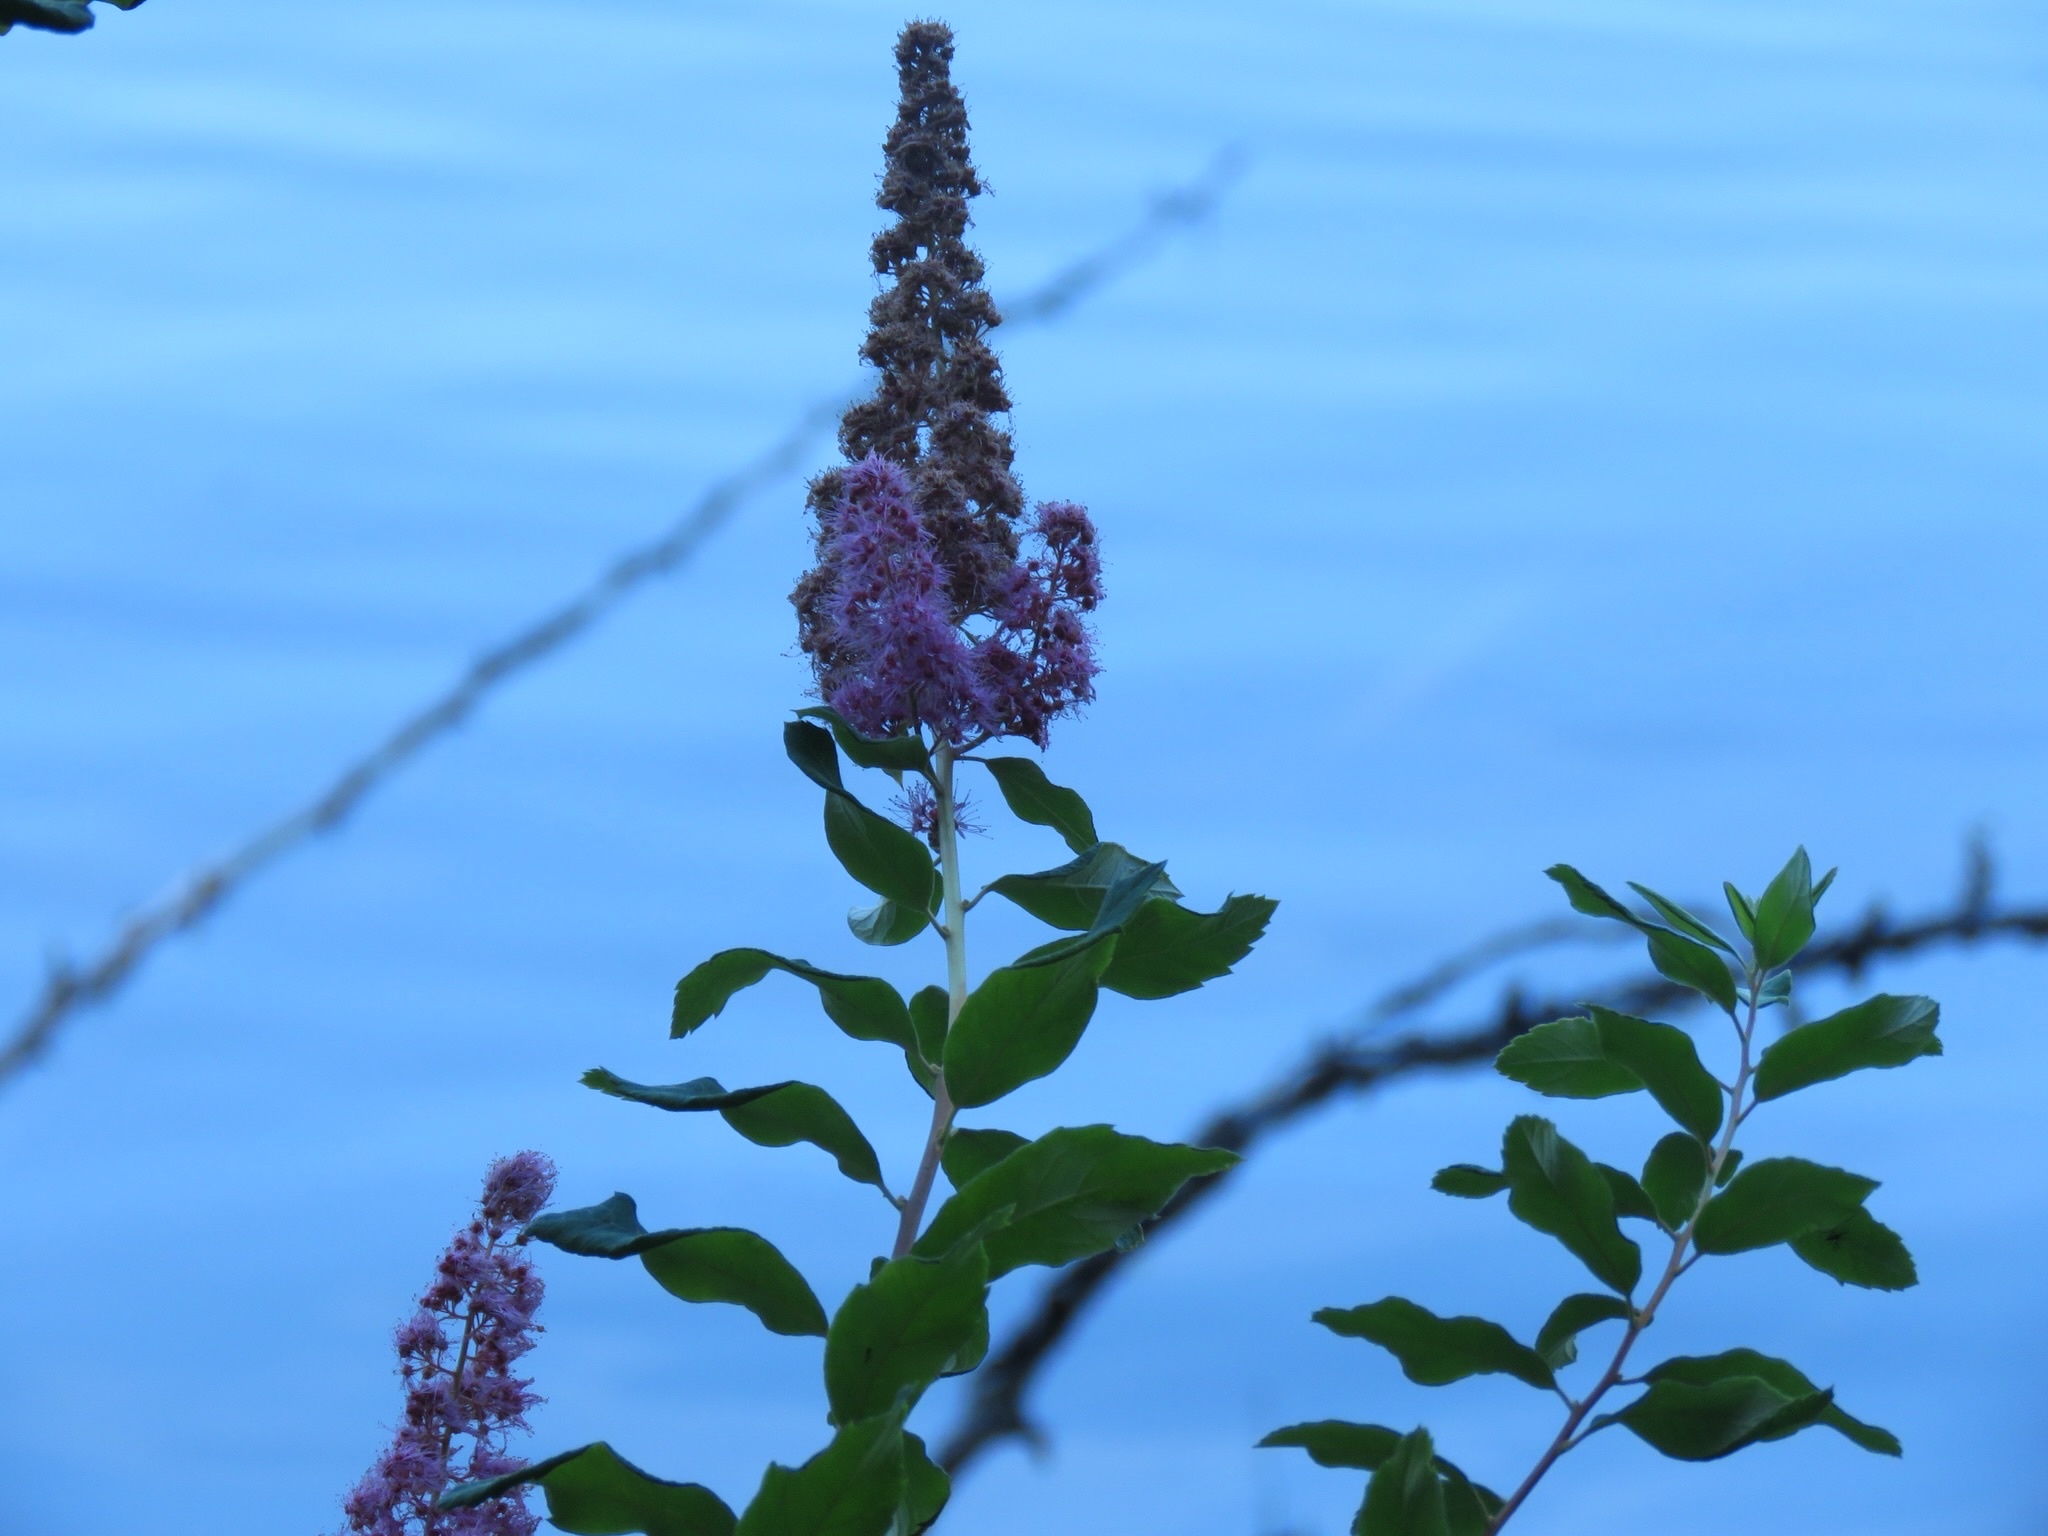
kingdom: Plantae
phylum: Tracheophyta
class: Magnoliopsida
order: Rosales
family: Rosaceae
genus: Spiraea
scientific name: Spiraea douglasii
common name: Steeplebush
